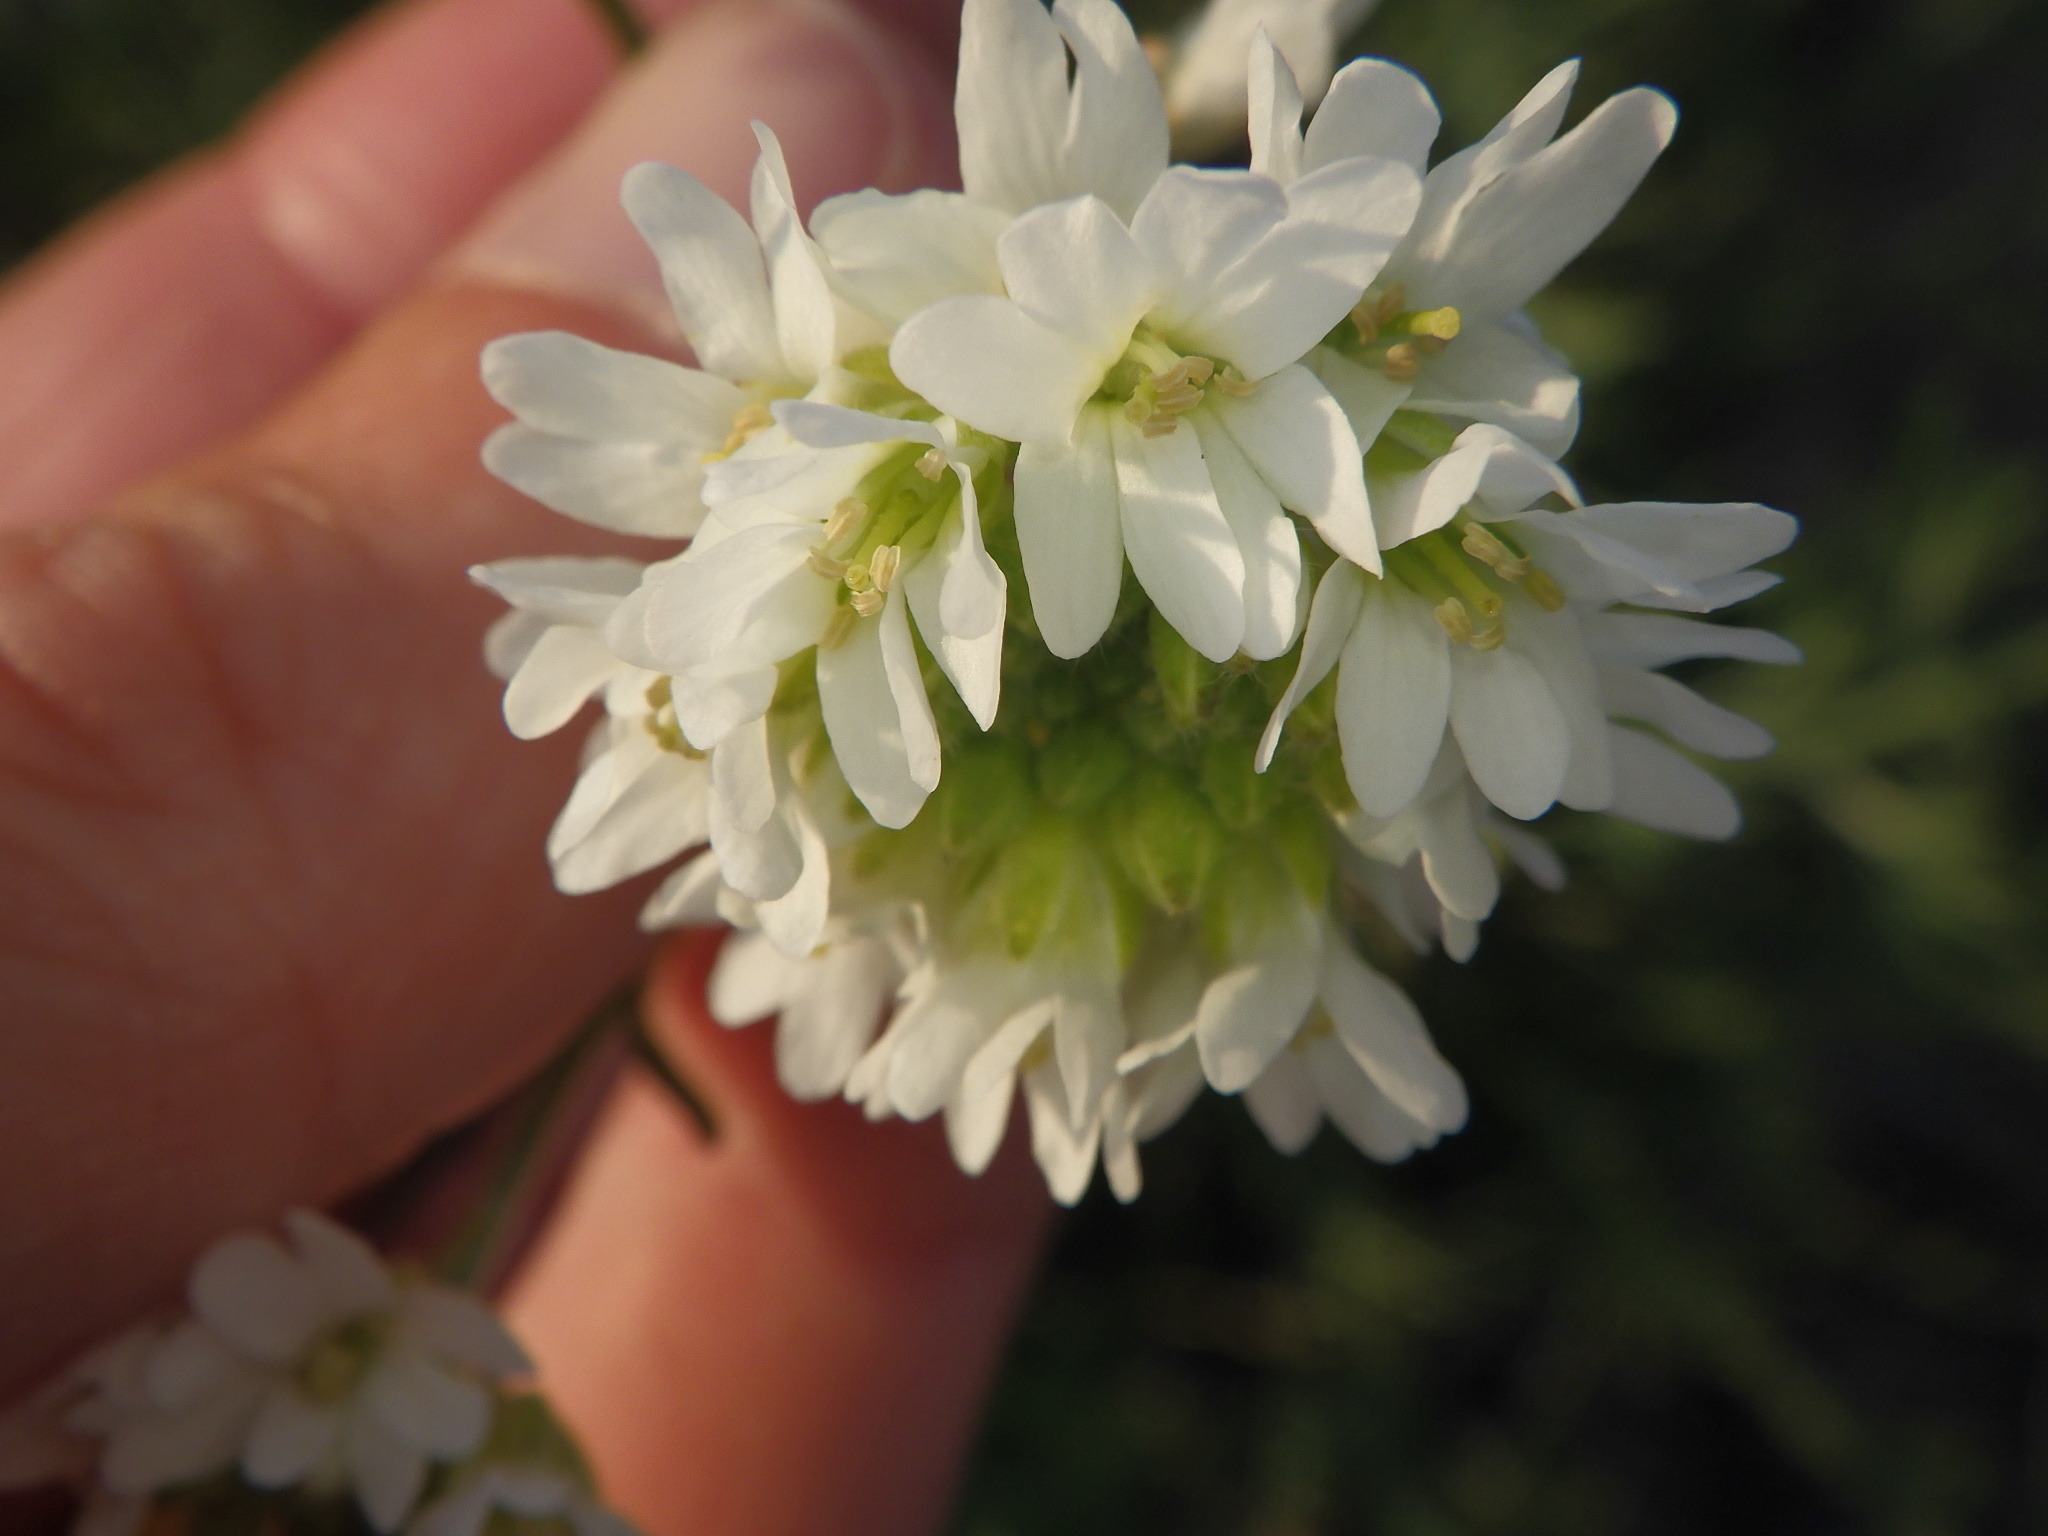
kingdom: Plantae
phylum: Tracheophyta
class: Magnoliopsida
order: Brassicales
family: Brassicaceae
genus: Berteroa
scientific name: Berteroa incana
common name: Hoary alison
